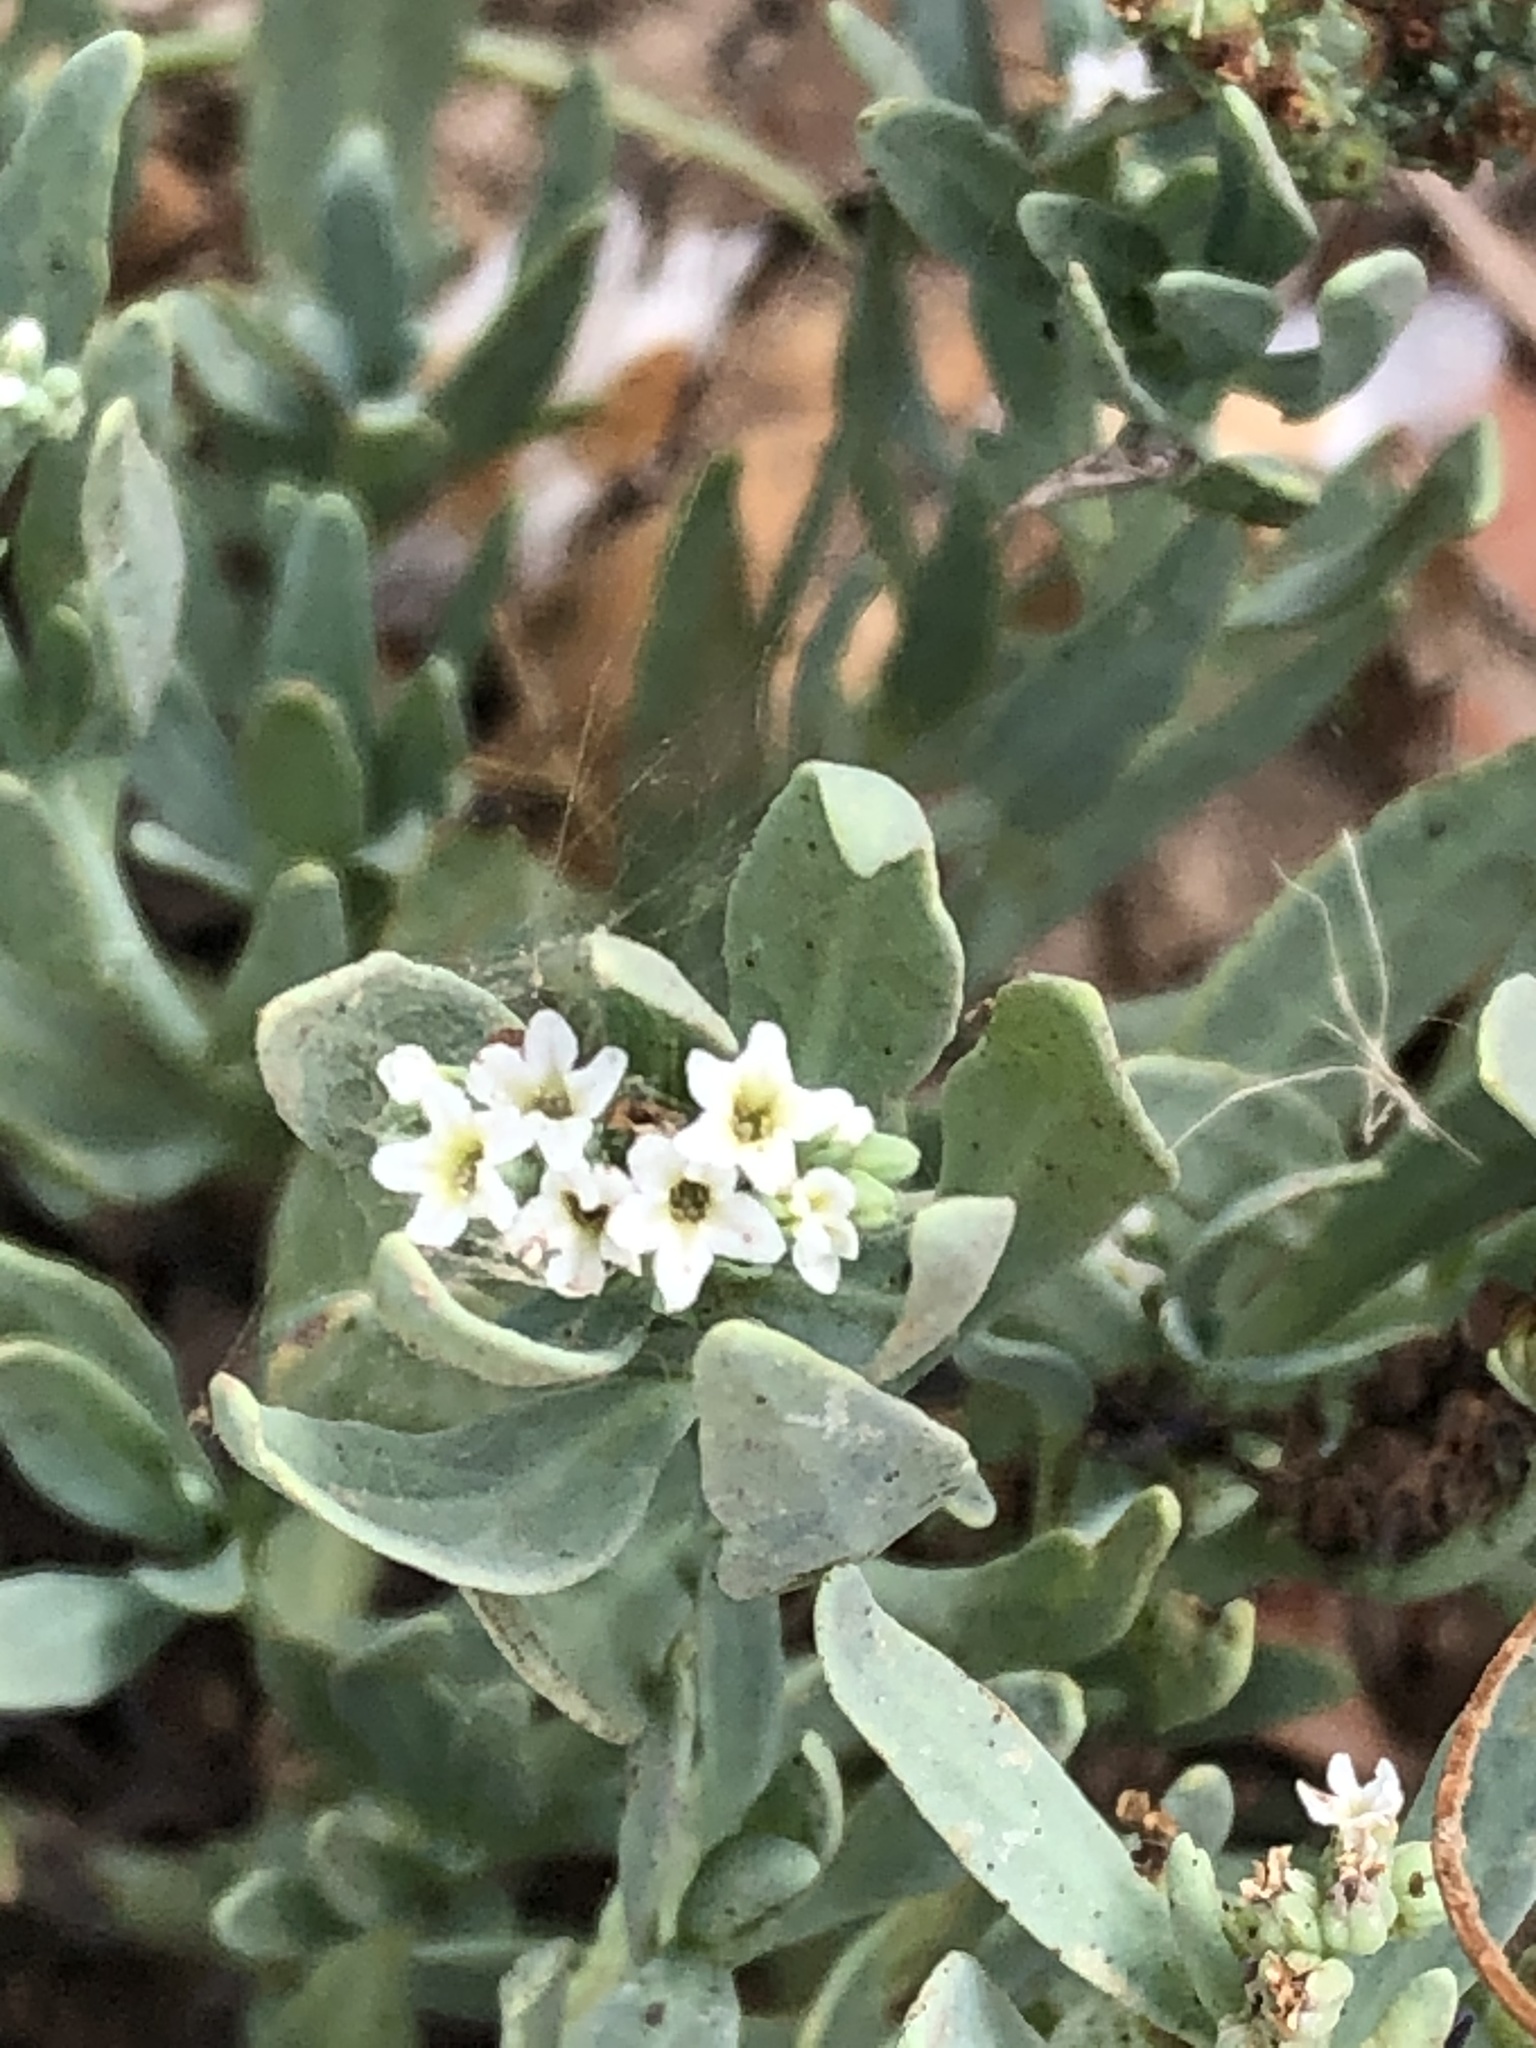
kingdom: Plantae
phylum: Tracheophyta
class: Magnoliopsida
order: Boraginales
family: Heliotropiaceae
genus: Heliotropium
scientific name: Heliotropium curassavicum
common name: Seaside heliotrope
